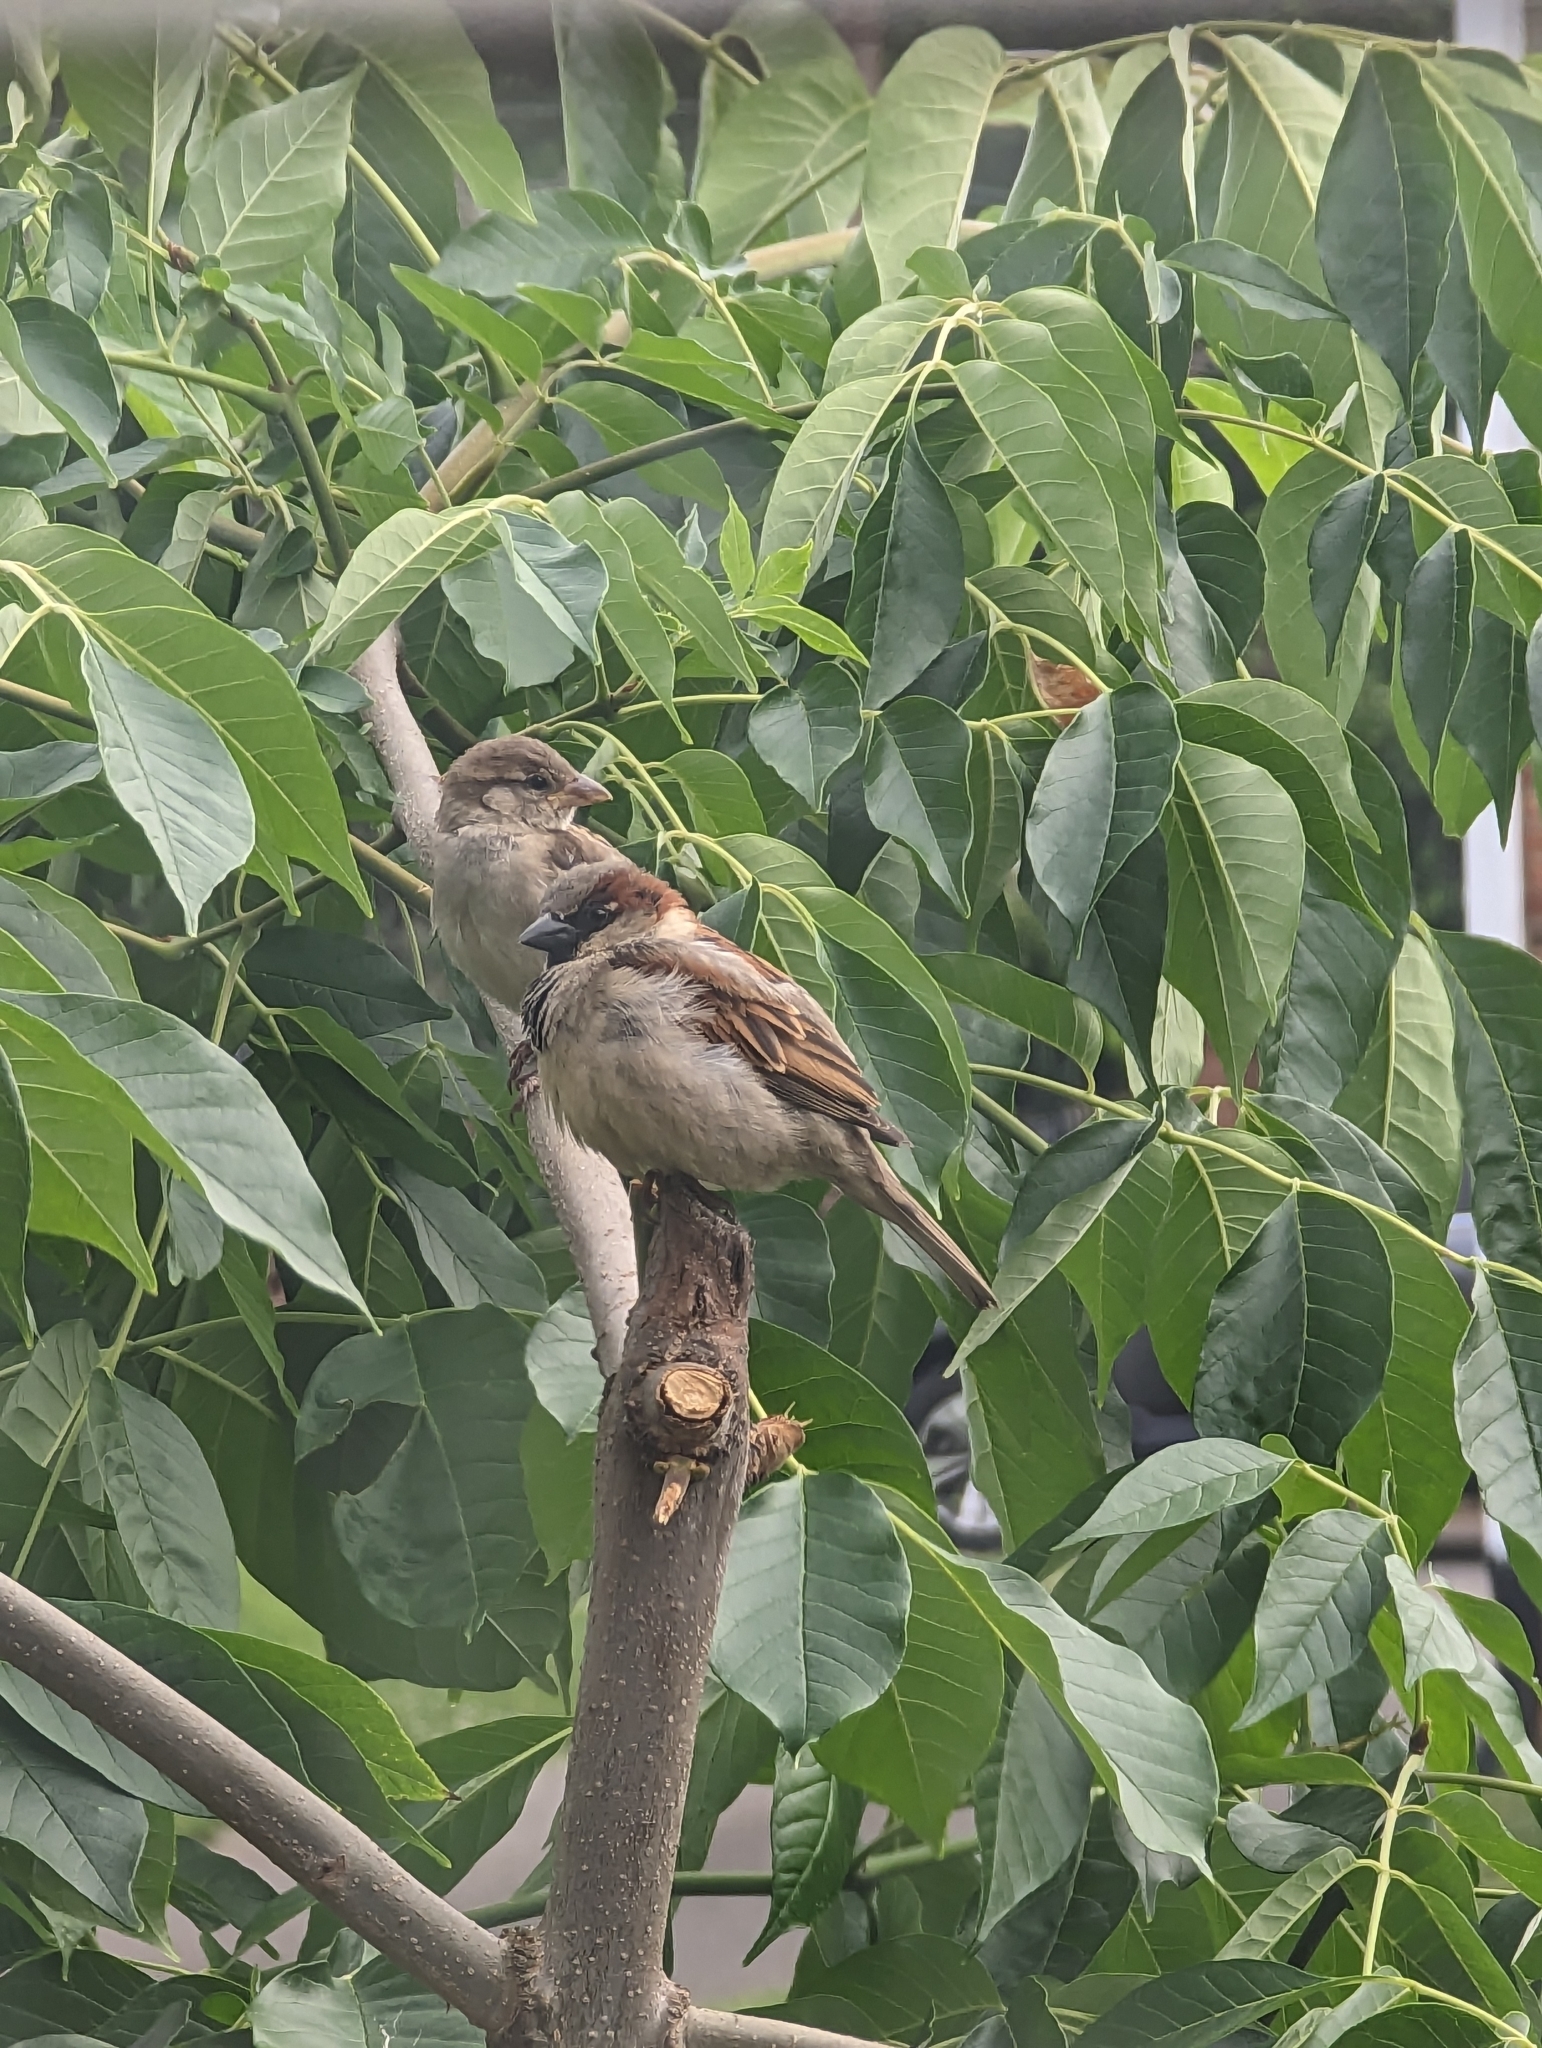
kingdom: Animalia
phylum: Chordata
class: Aves
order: Passeriformes
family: Passeridae
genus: Passer
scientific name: Passer domesticus
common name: House sparrow
